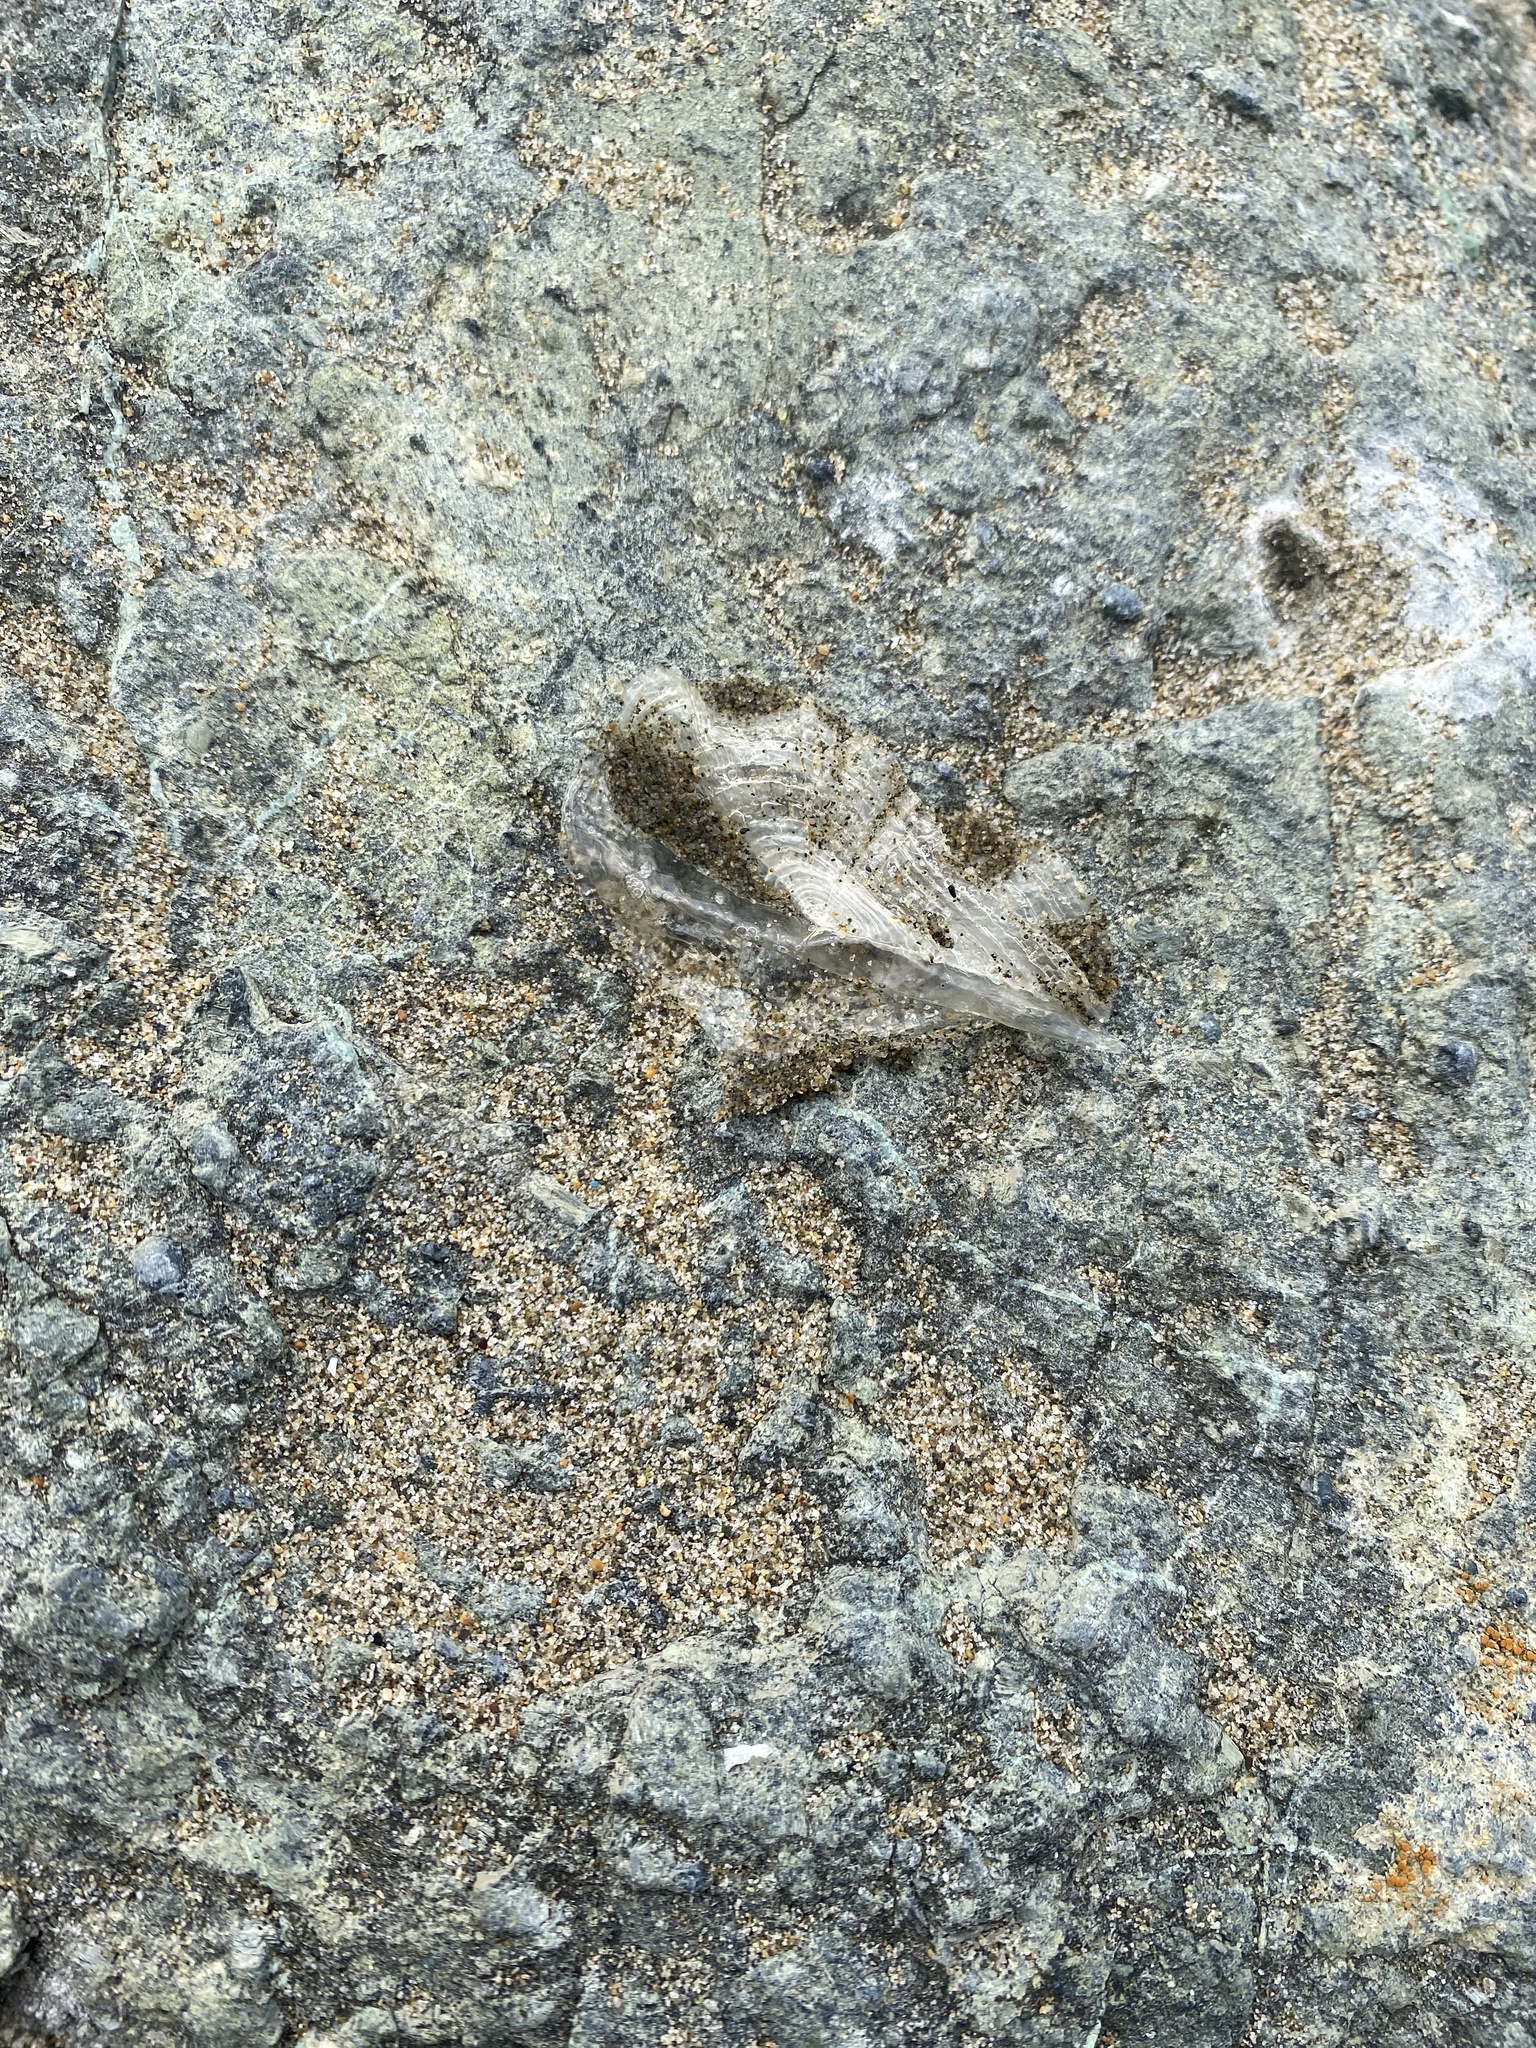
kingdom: Animalia
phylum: Cnidaria
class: Hydrozoa
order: Anthoathecata
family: Porpitidae
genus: Velella
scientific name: Velella velella
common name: By-the-wind-sailor
